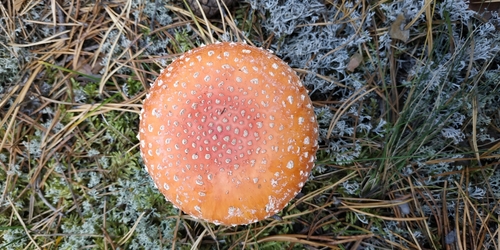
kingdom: Fungi
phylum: Basidiomycota
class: Agaricomycetes
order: Agaricales
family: Amanitaceae
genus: Amanita
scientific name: Amanita muscaria
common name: Fly agaric
